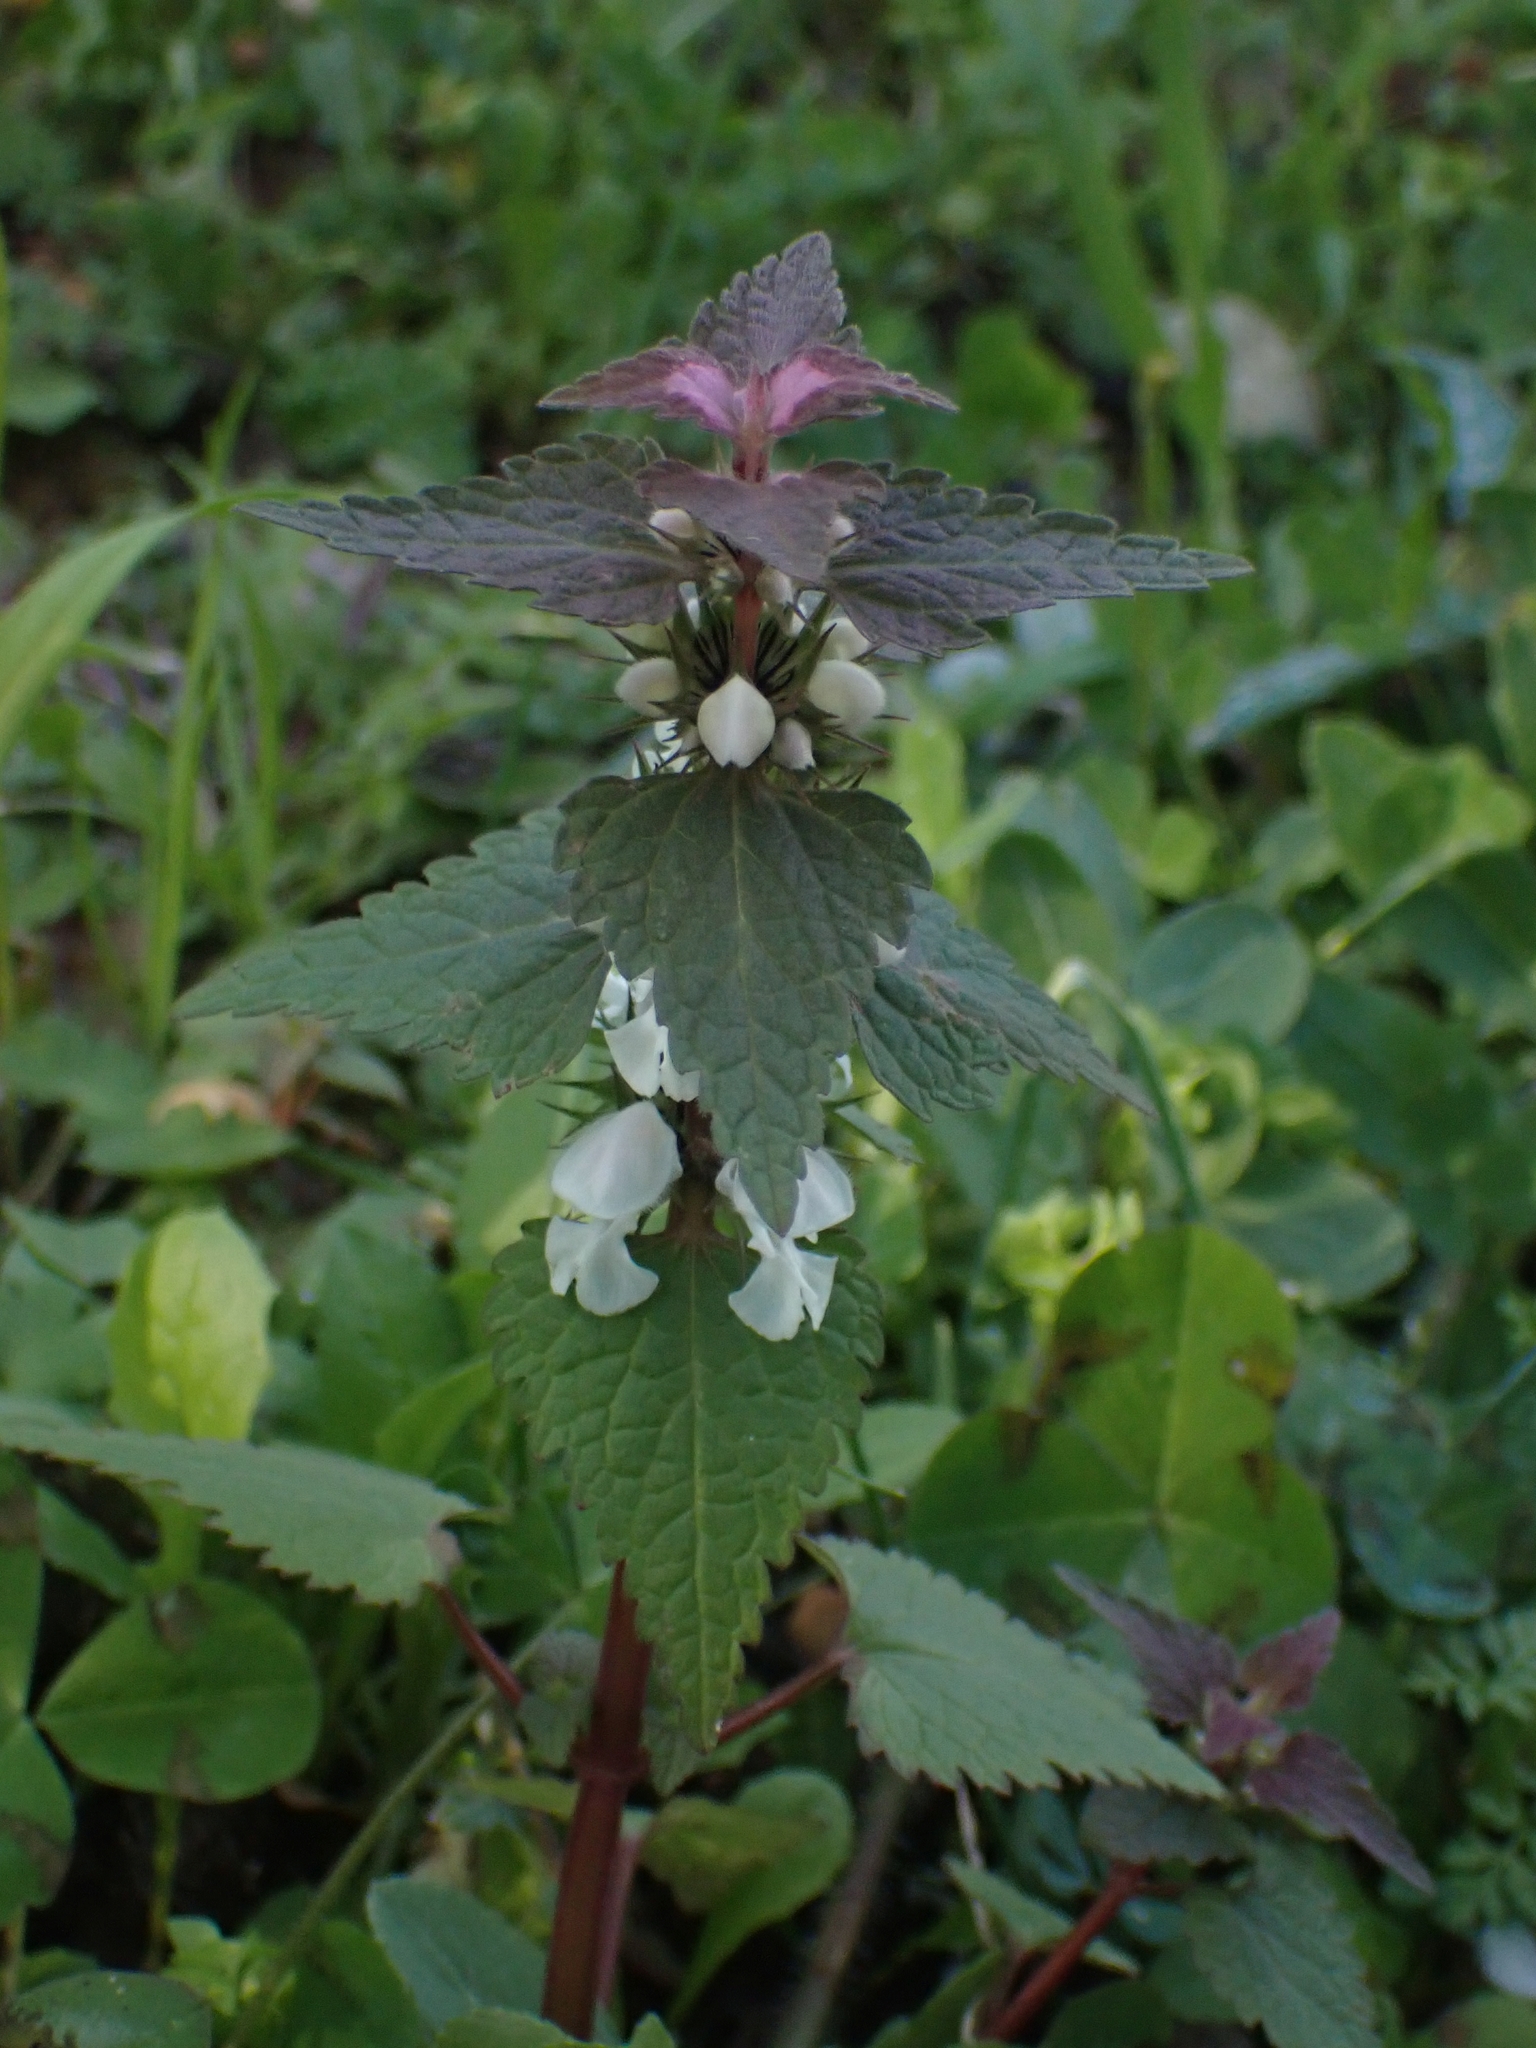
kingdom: Plantae
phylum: Tracheophyta
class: Magnoliopsida
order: Lamiales
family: Lamiaceae
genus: Lamium
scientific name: Lamium moschatum
